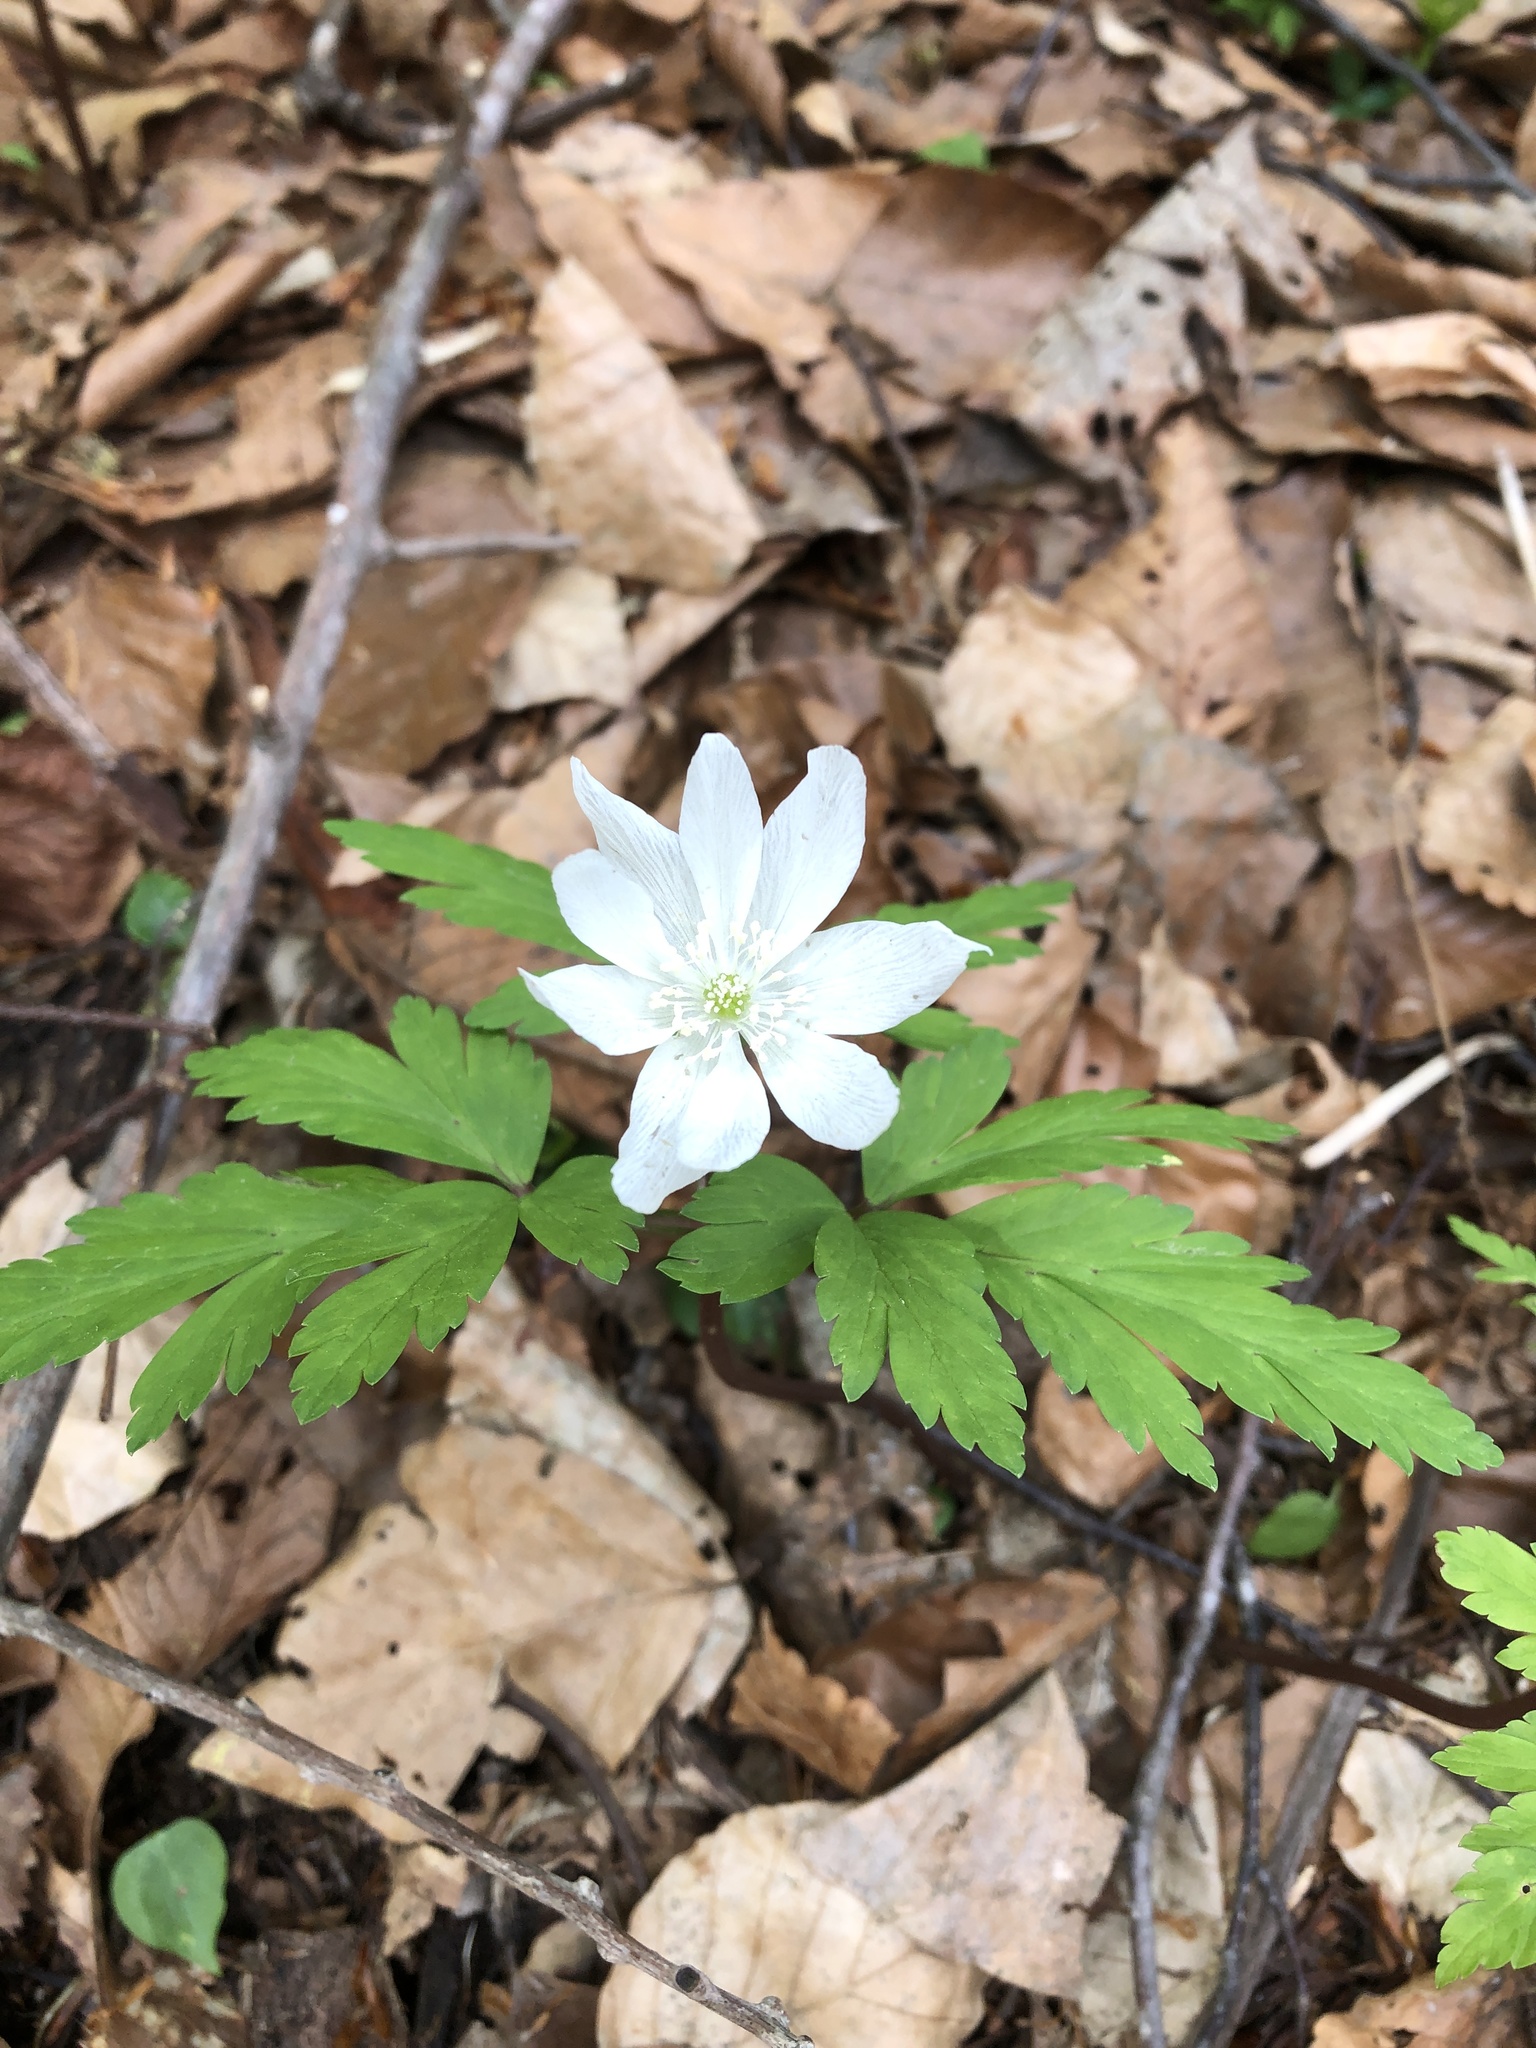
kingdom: Plantae
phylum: Tracheophyta
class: Magnoliopsida
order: Ranunculales
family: Ranunculaceae
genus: Anemone
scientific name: Anemone pseudoaltaica
